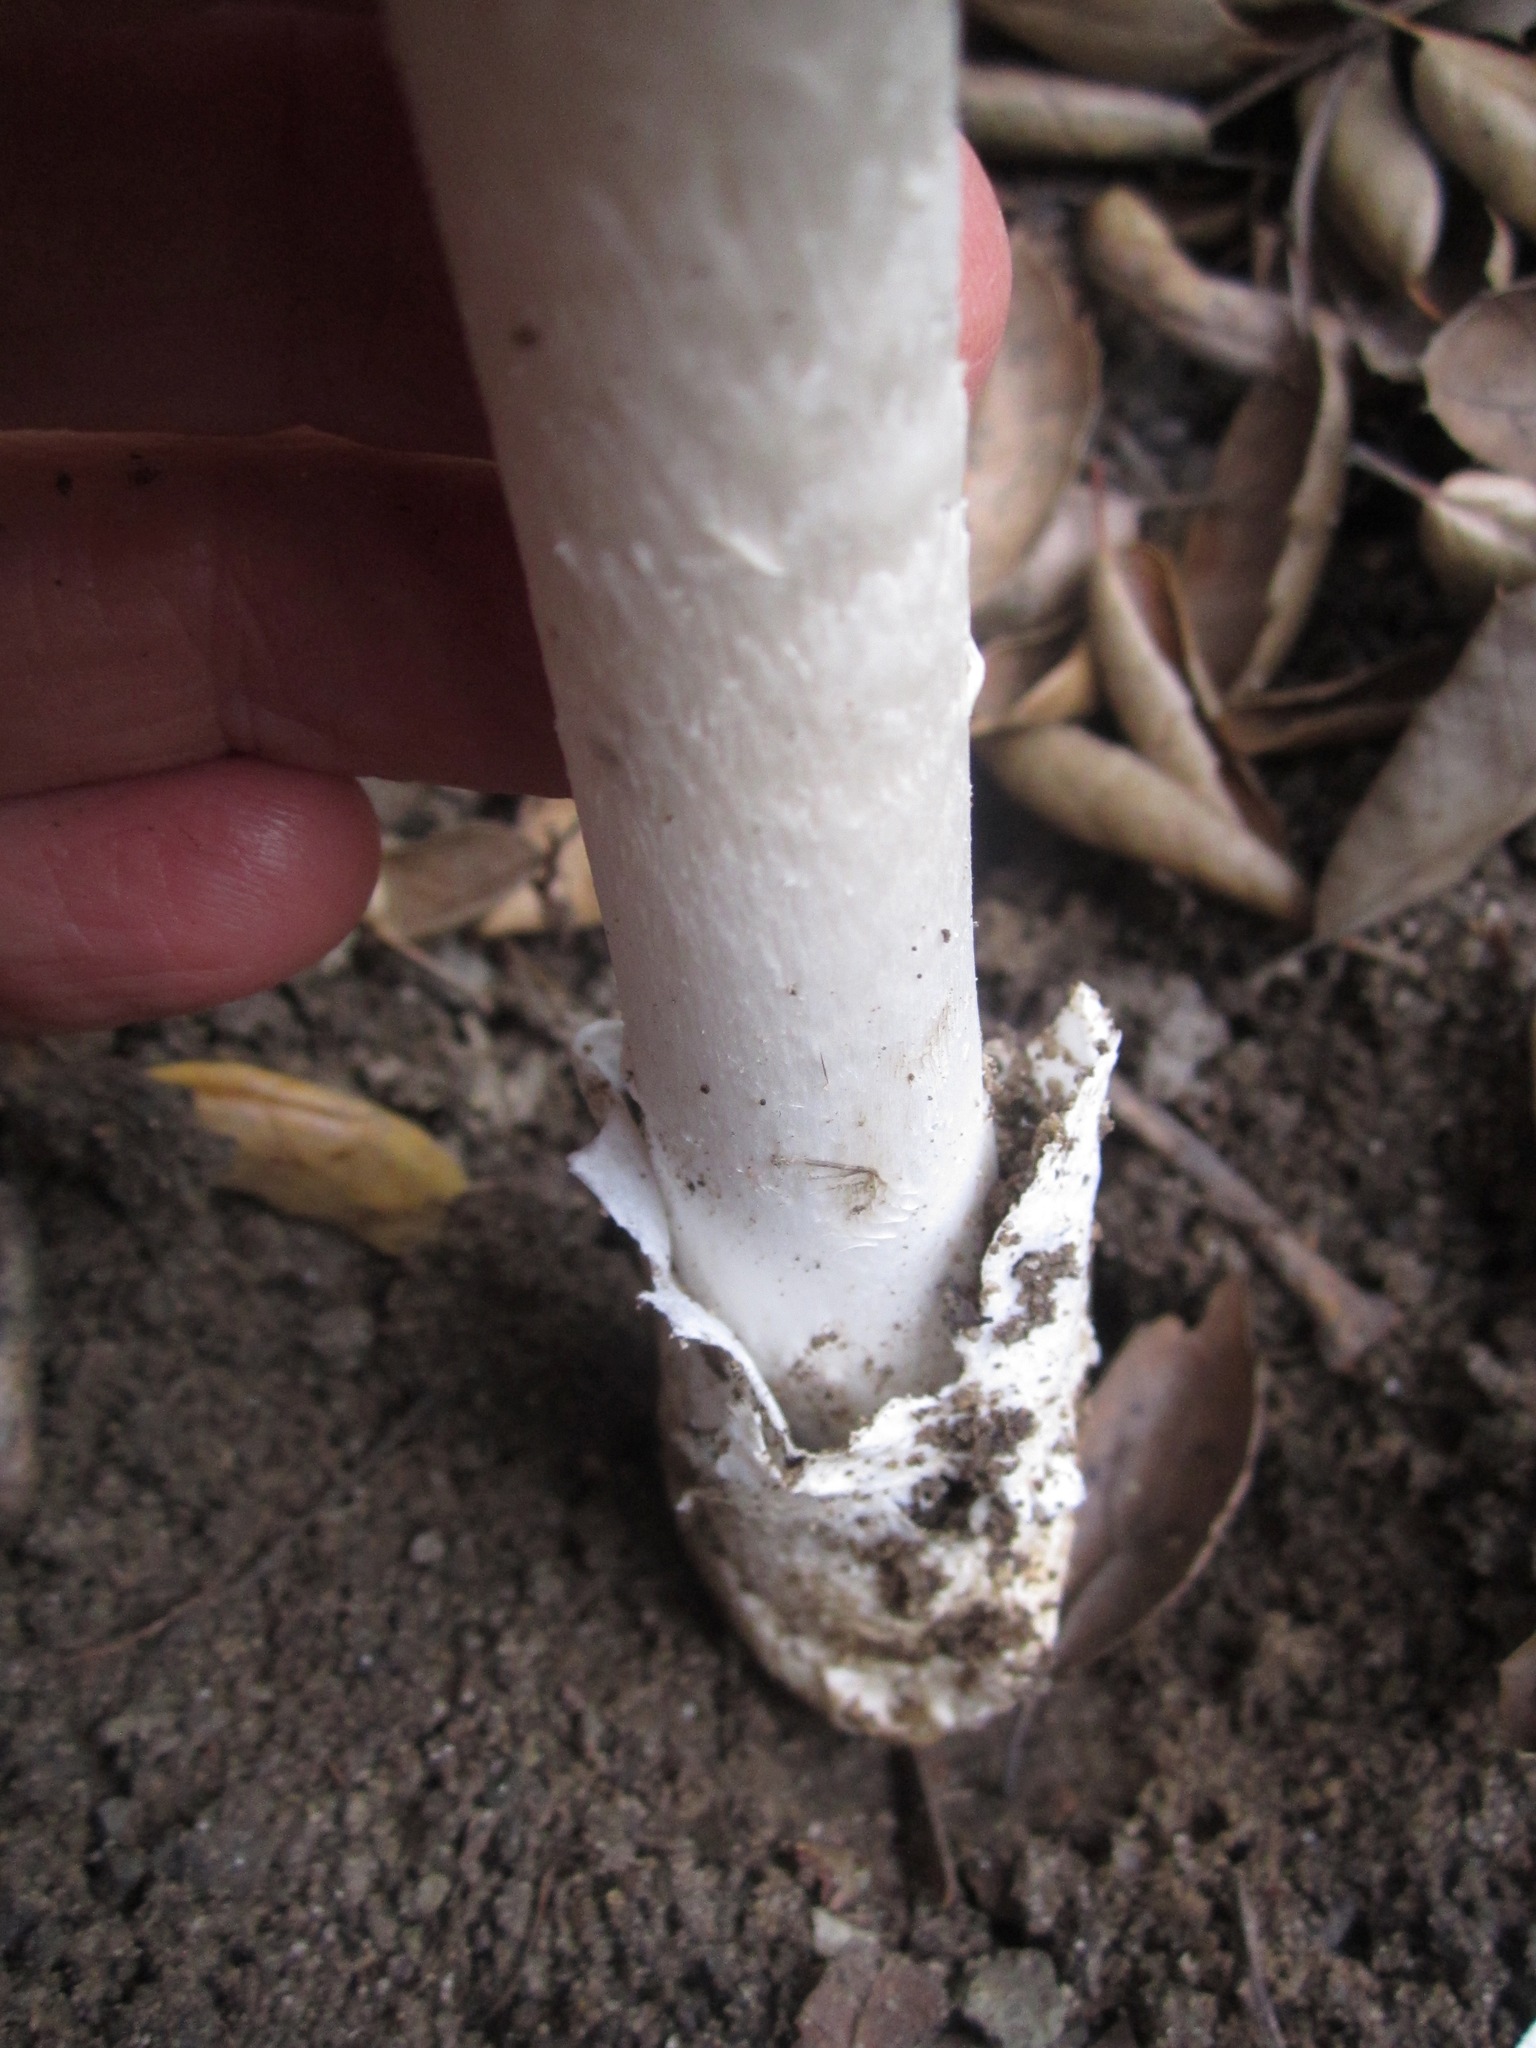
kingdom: Fungi
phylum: Basidiomycota
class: Agaricomycetes
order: Agaricales
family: Amanitaceae
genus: Amanita
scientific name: Amanita ocreata
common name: Western destroying angel
